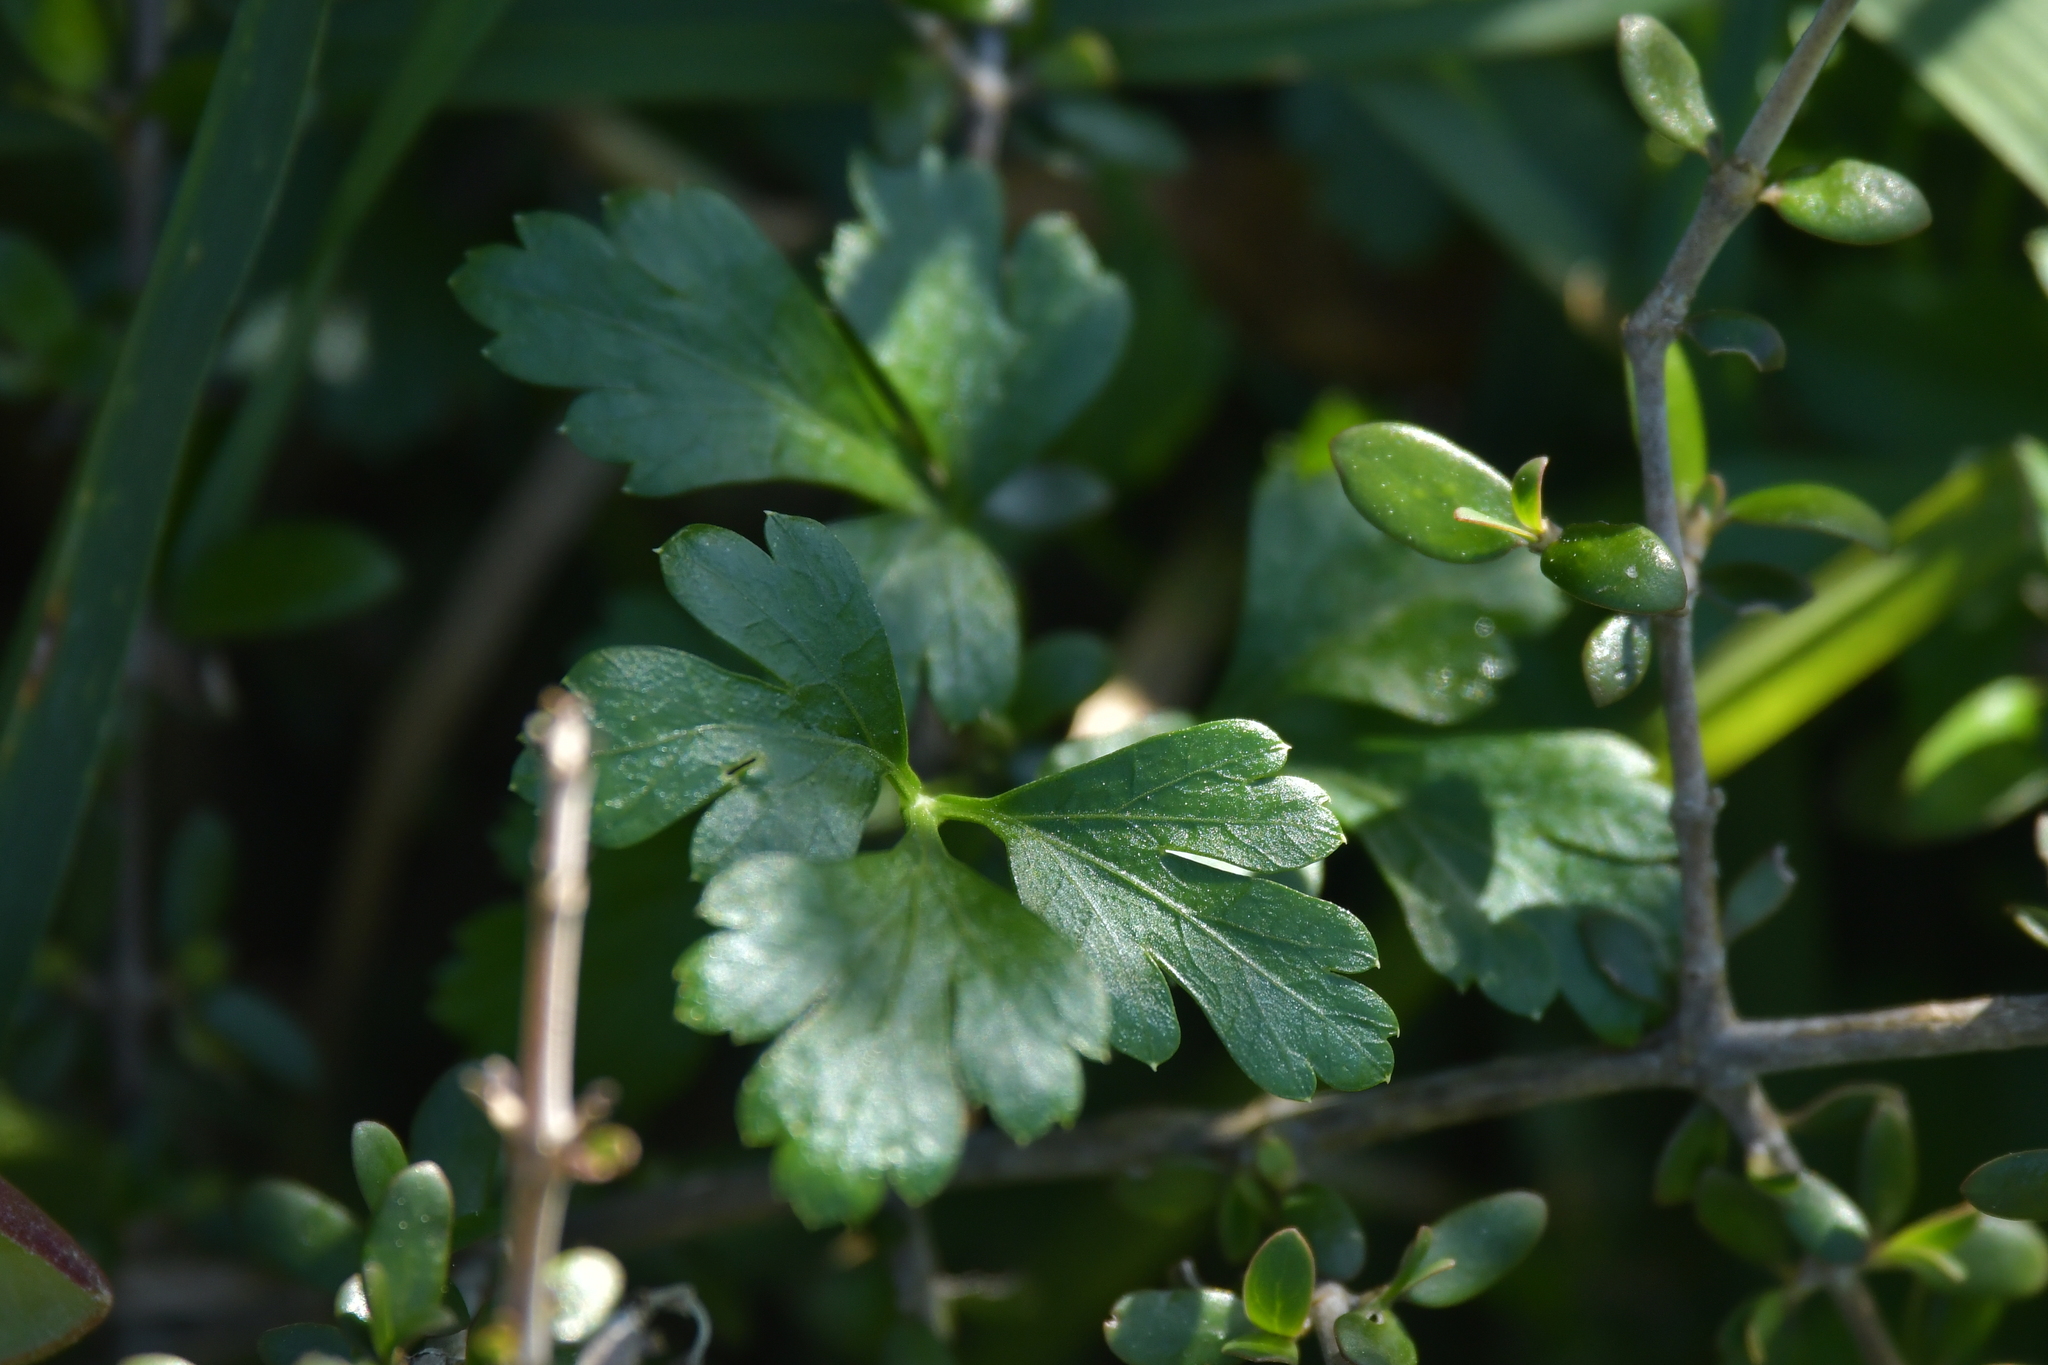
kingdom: Plantae
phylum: Tracheophyta
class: Magnoliopsida
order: Apiales
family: Apiaceae
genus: Petroselinum
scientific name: Petroselinum crispum
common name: Parsley
